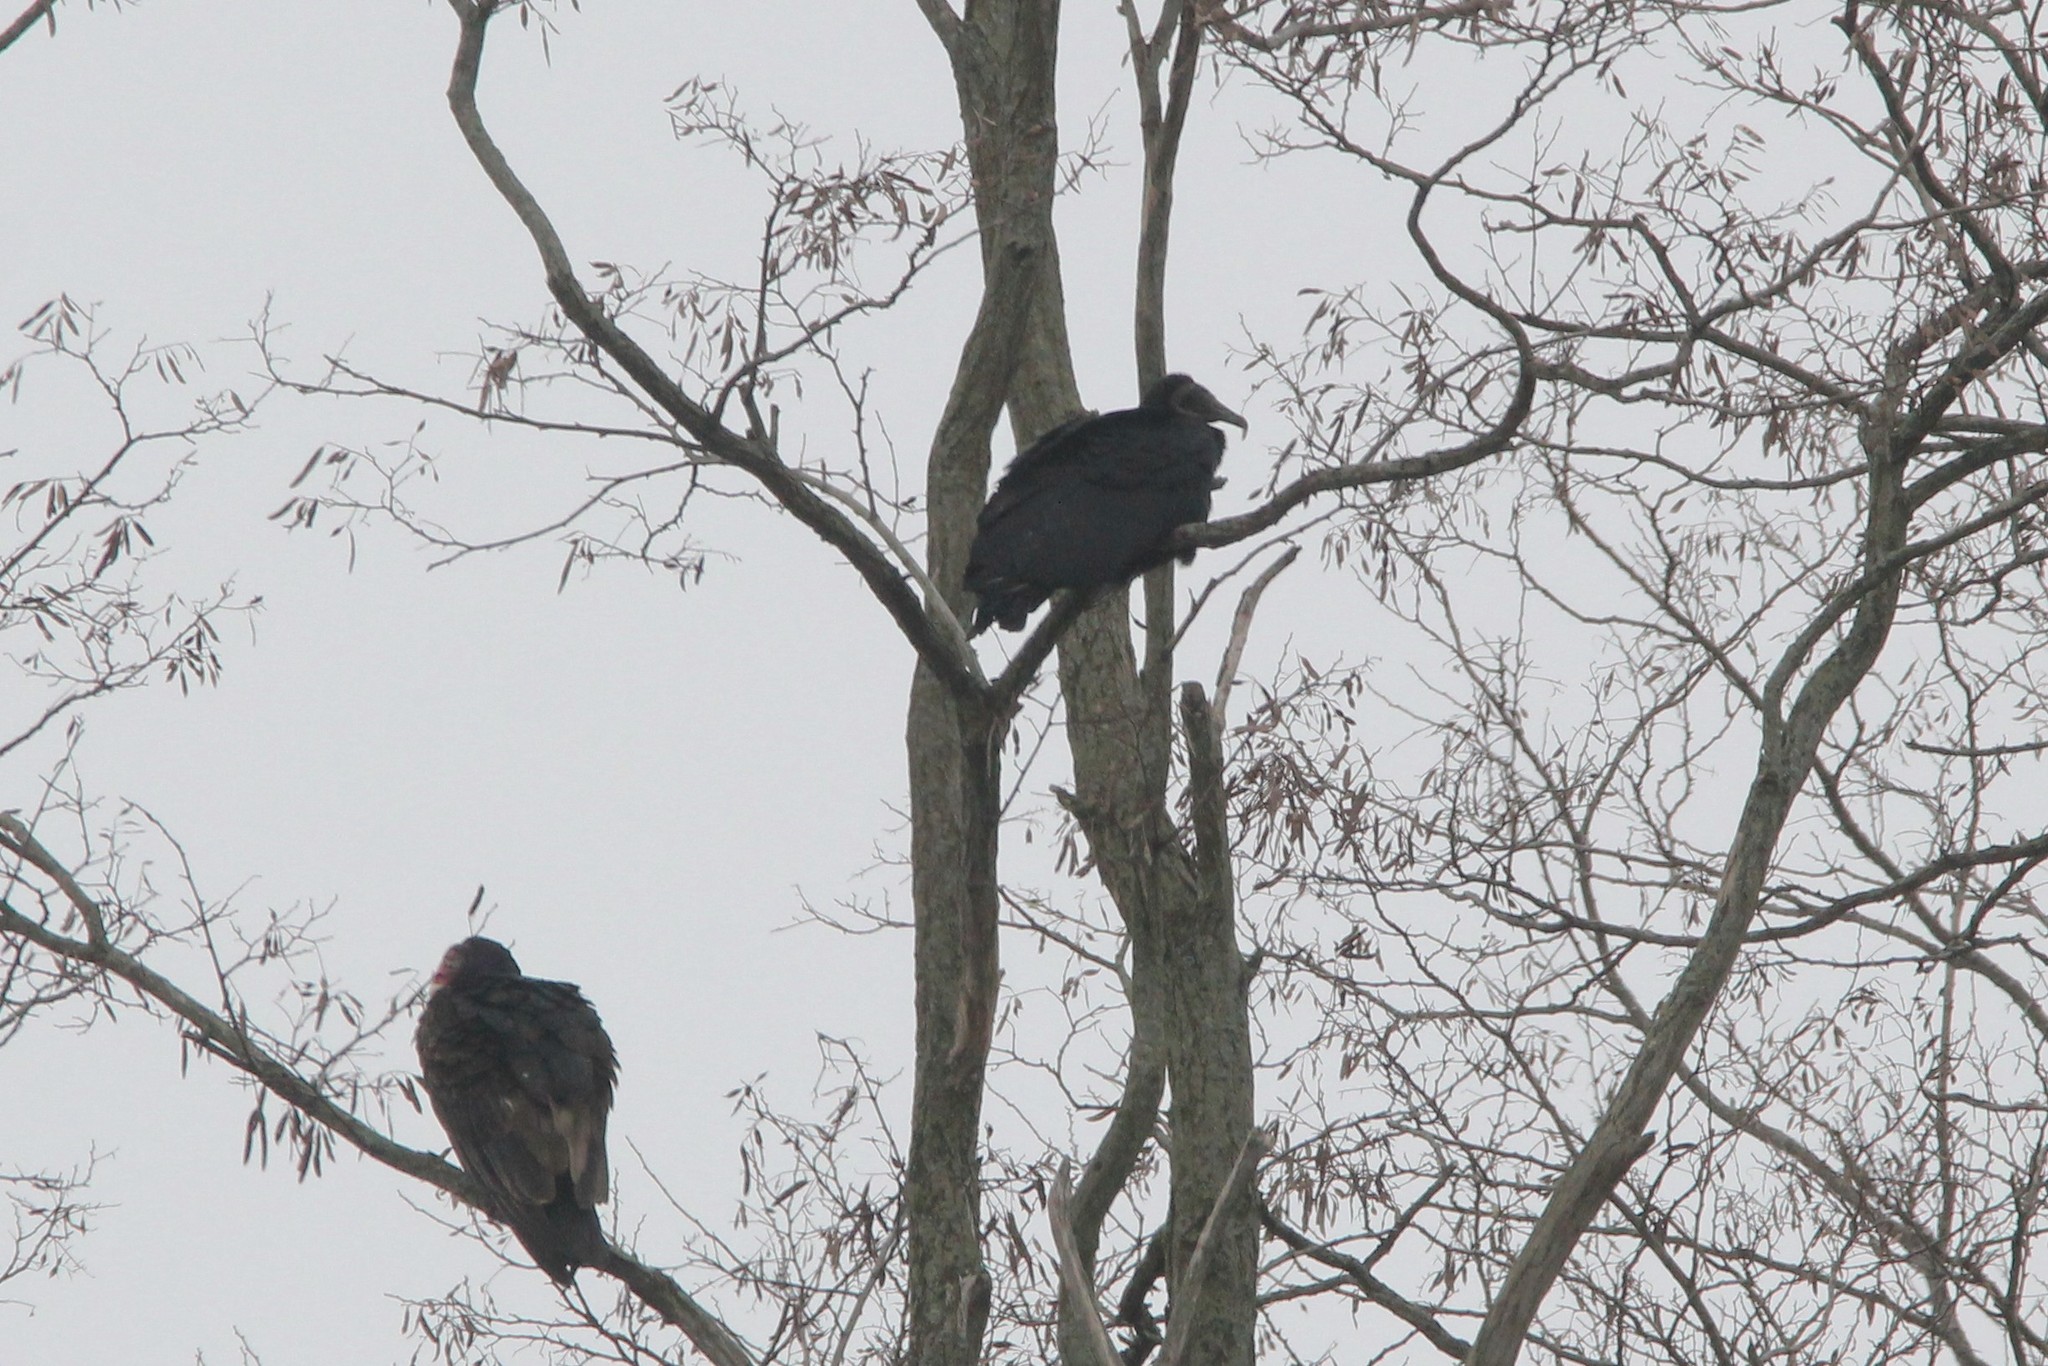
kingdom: Animalia
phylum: Chordata
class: Aves
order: Accipitriformes
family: Cathartidae
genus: Coragyps
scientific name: Coragyps atratus
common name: Black vulture
